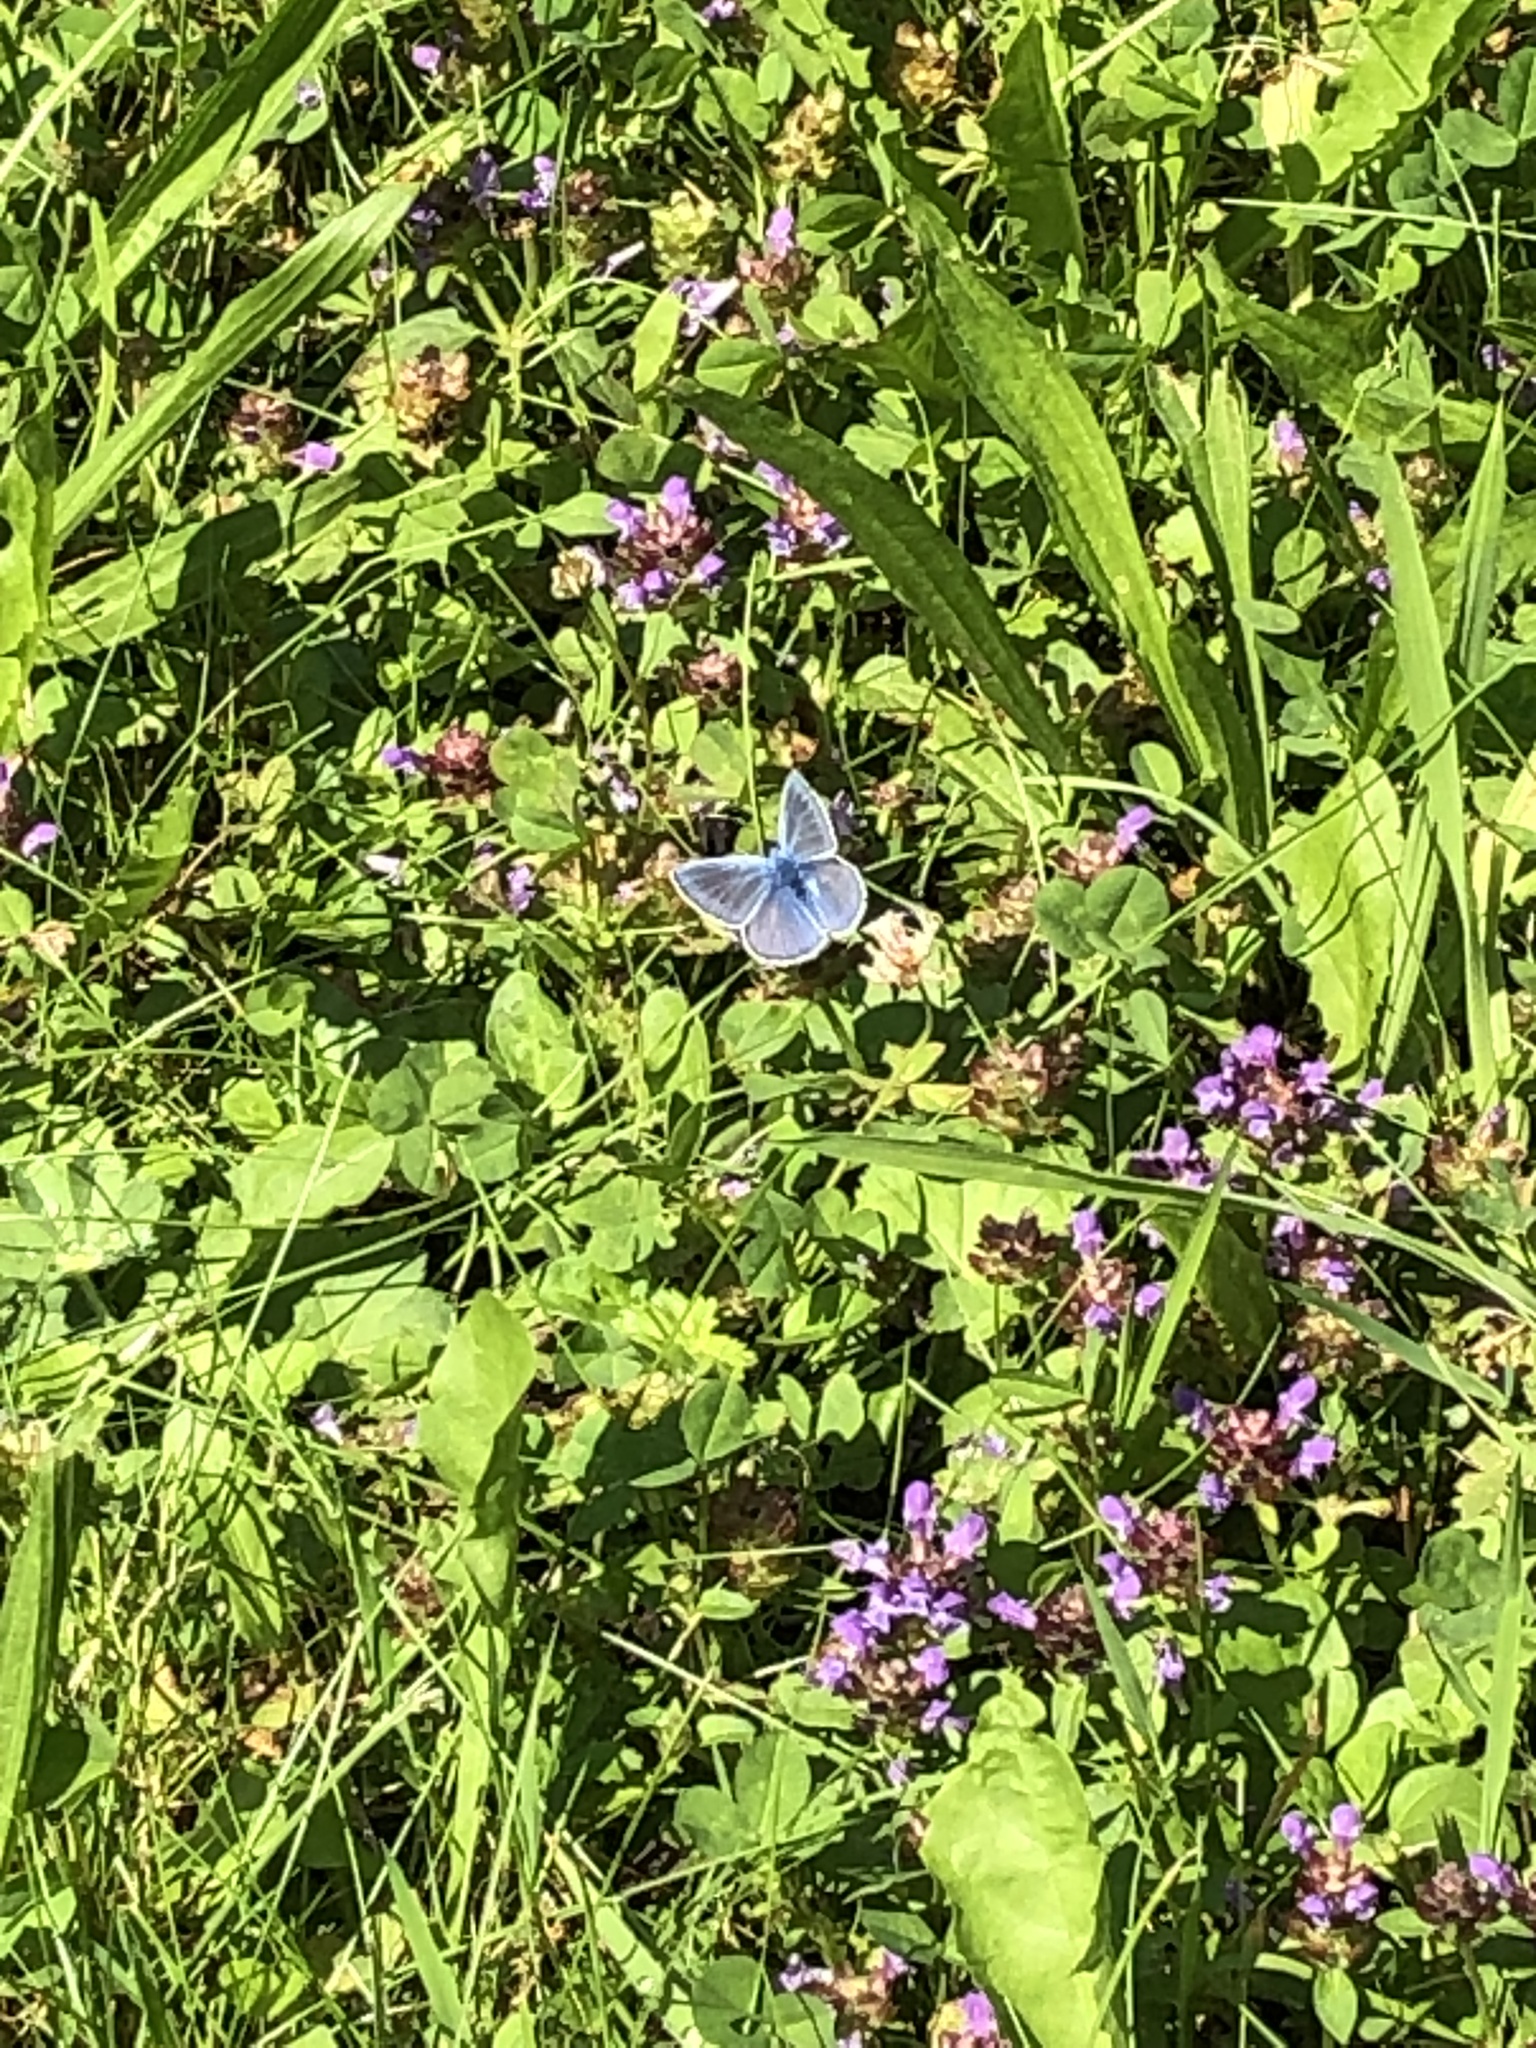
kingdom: Animalia
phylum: Arthropoda
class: Insecta
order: Lepidoptera
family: Lycaenidae
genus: Polyommatus
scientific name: Polyommatus icarus
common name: Common blue
